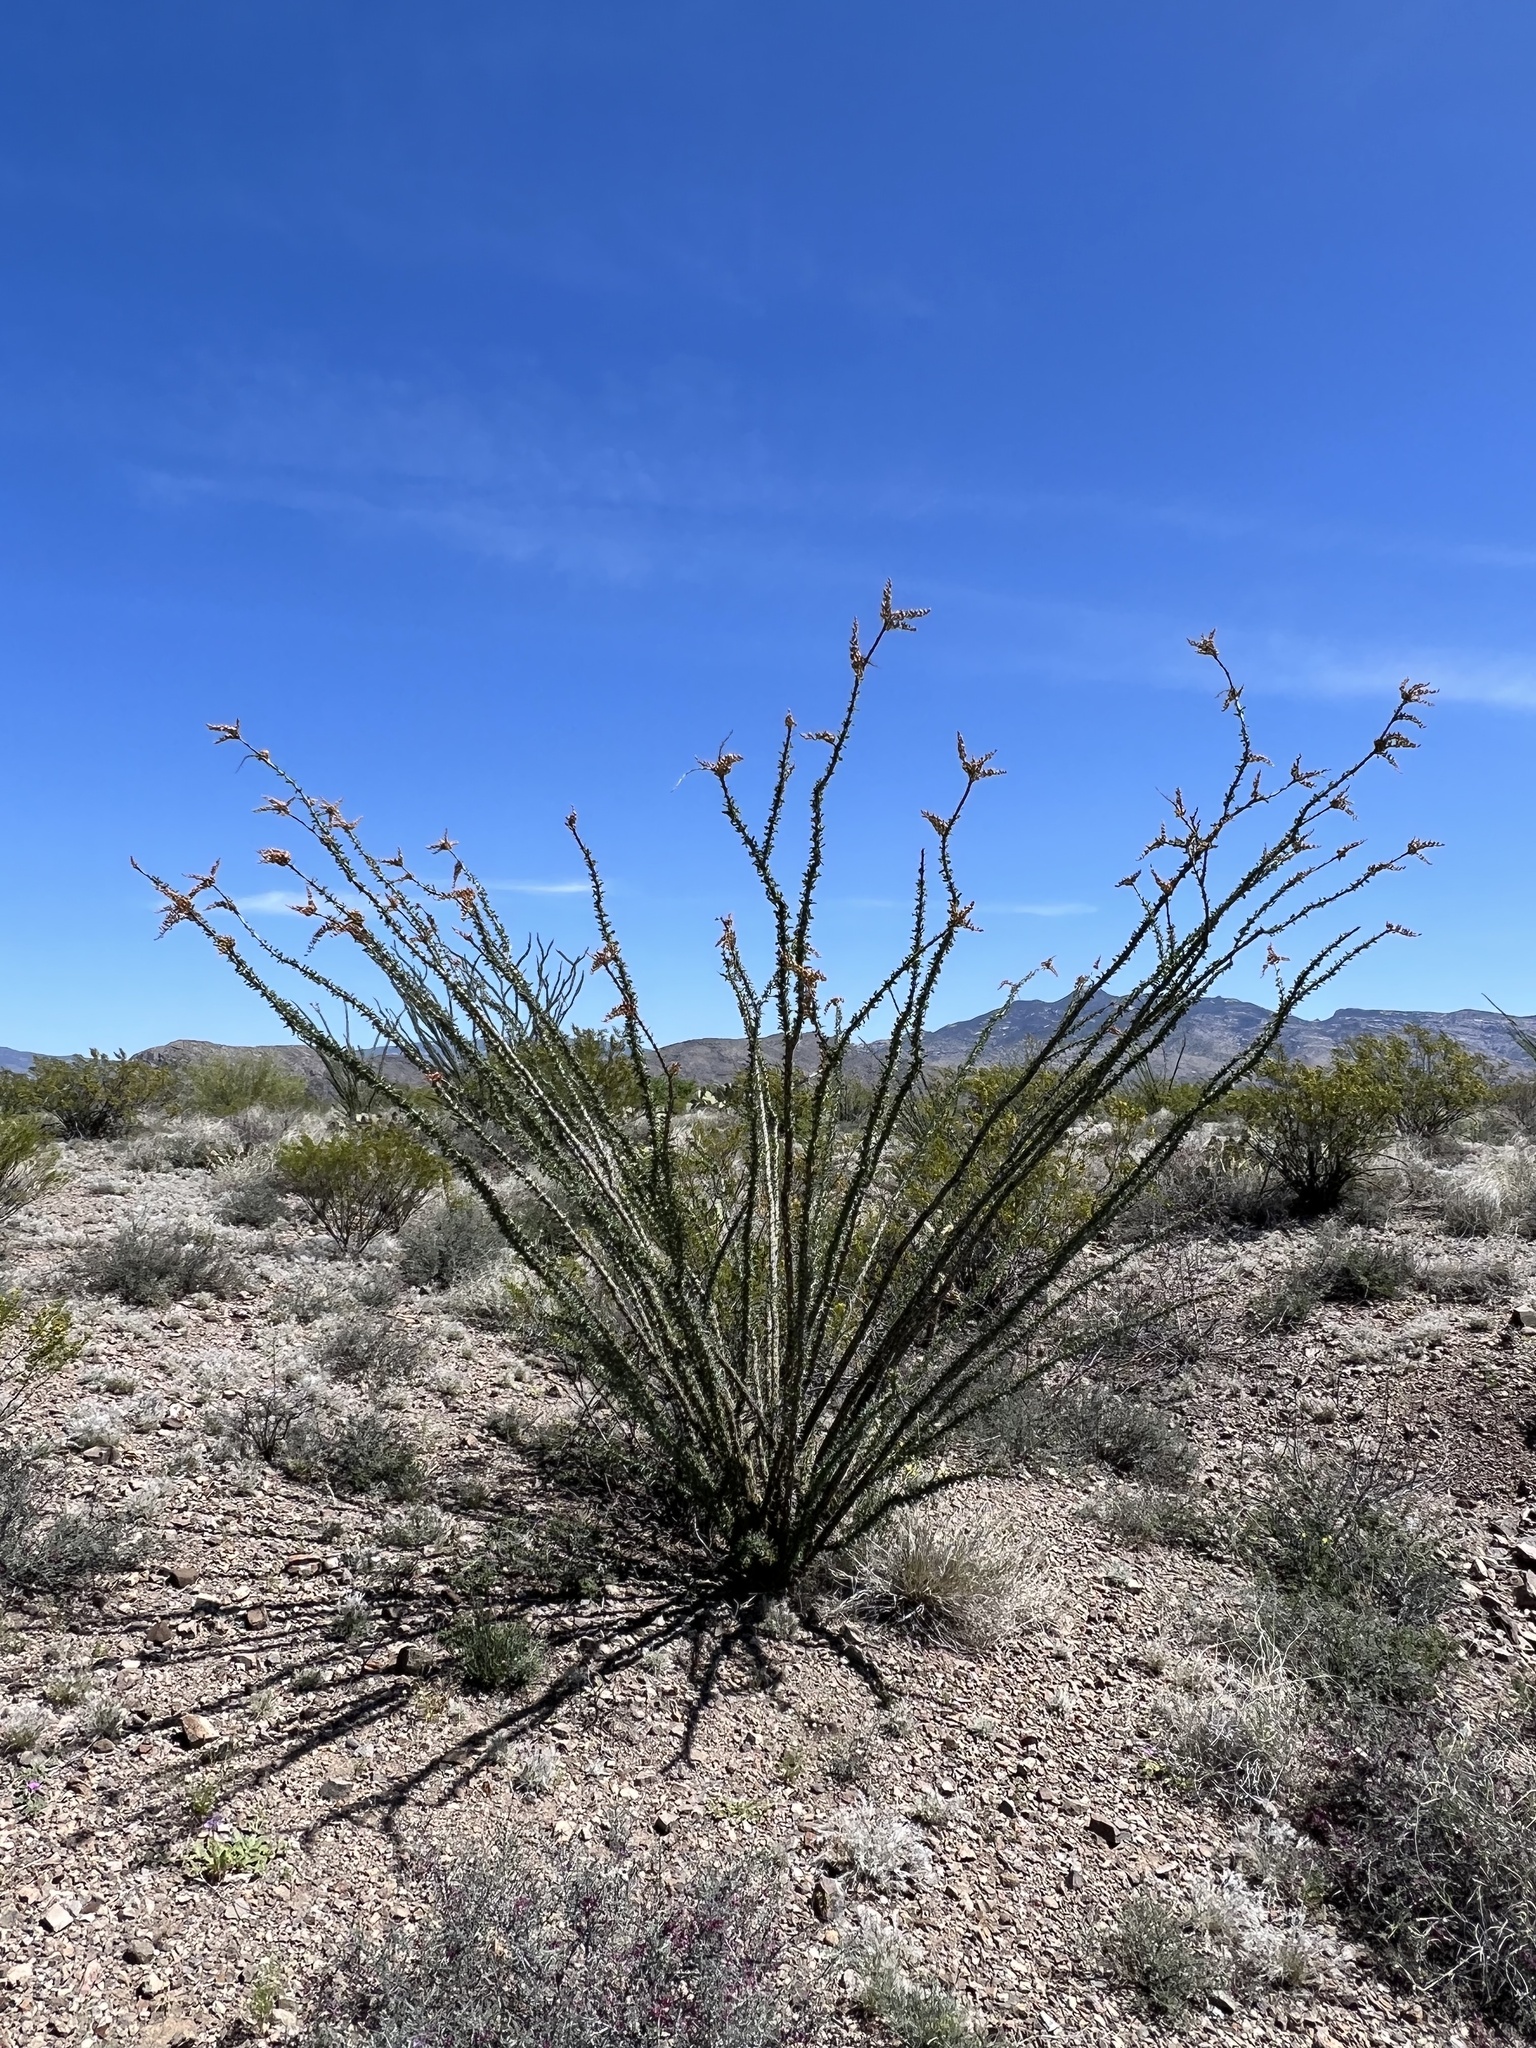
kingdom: Plantae
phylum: Tracheophyta
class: Magnoliopsida
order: Ericales
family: Fouquieriaceae
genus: Fouquieria
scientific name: Fouquieria splendens
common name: Vine-cactus
